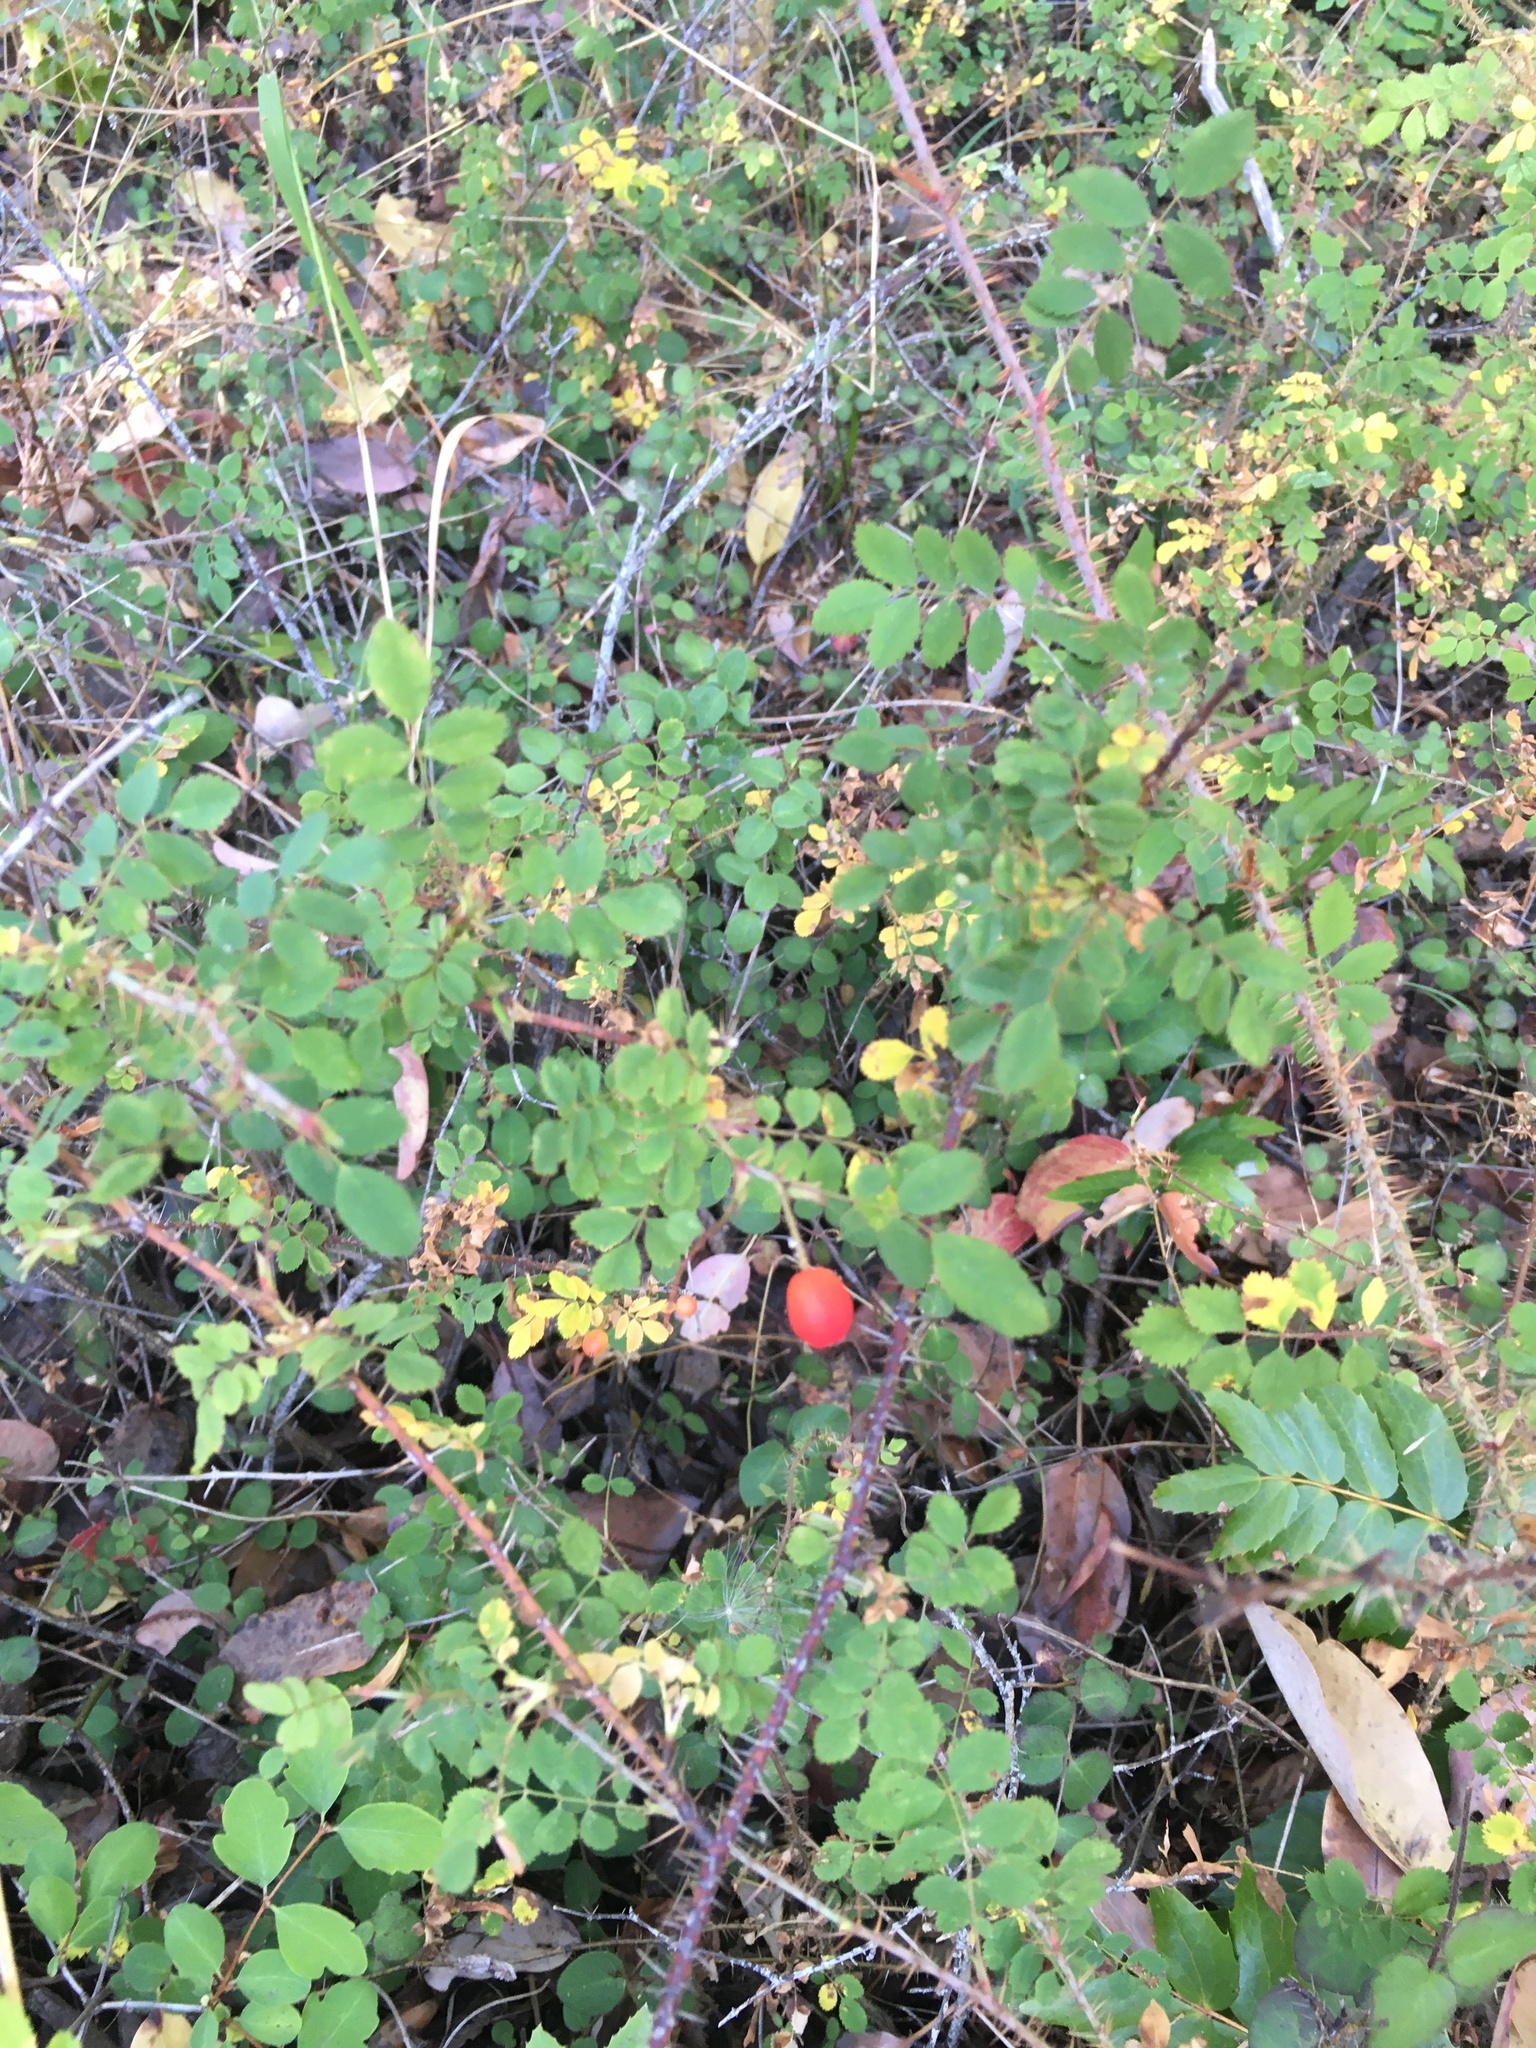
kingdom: Plantae
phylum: Tracheophyta
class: Magnoliopsida
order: Rosales
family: Rosaceae
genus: Rosa
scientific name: Rosa gymnocarpa
